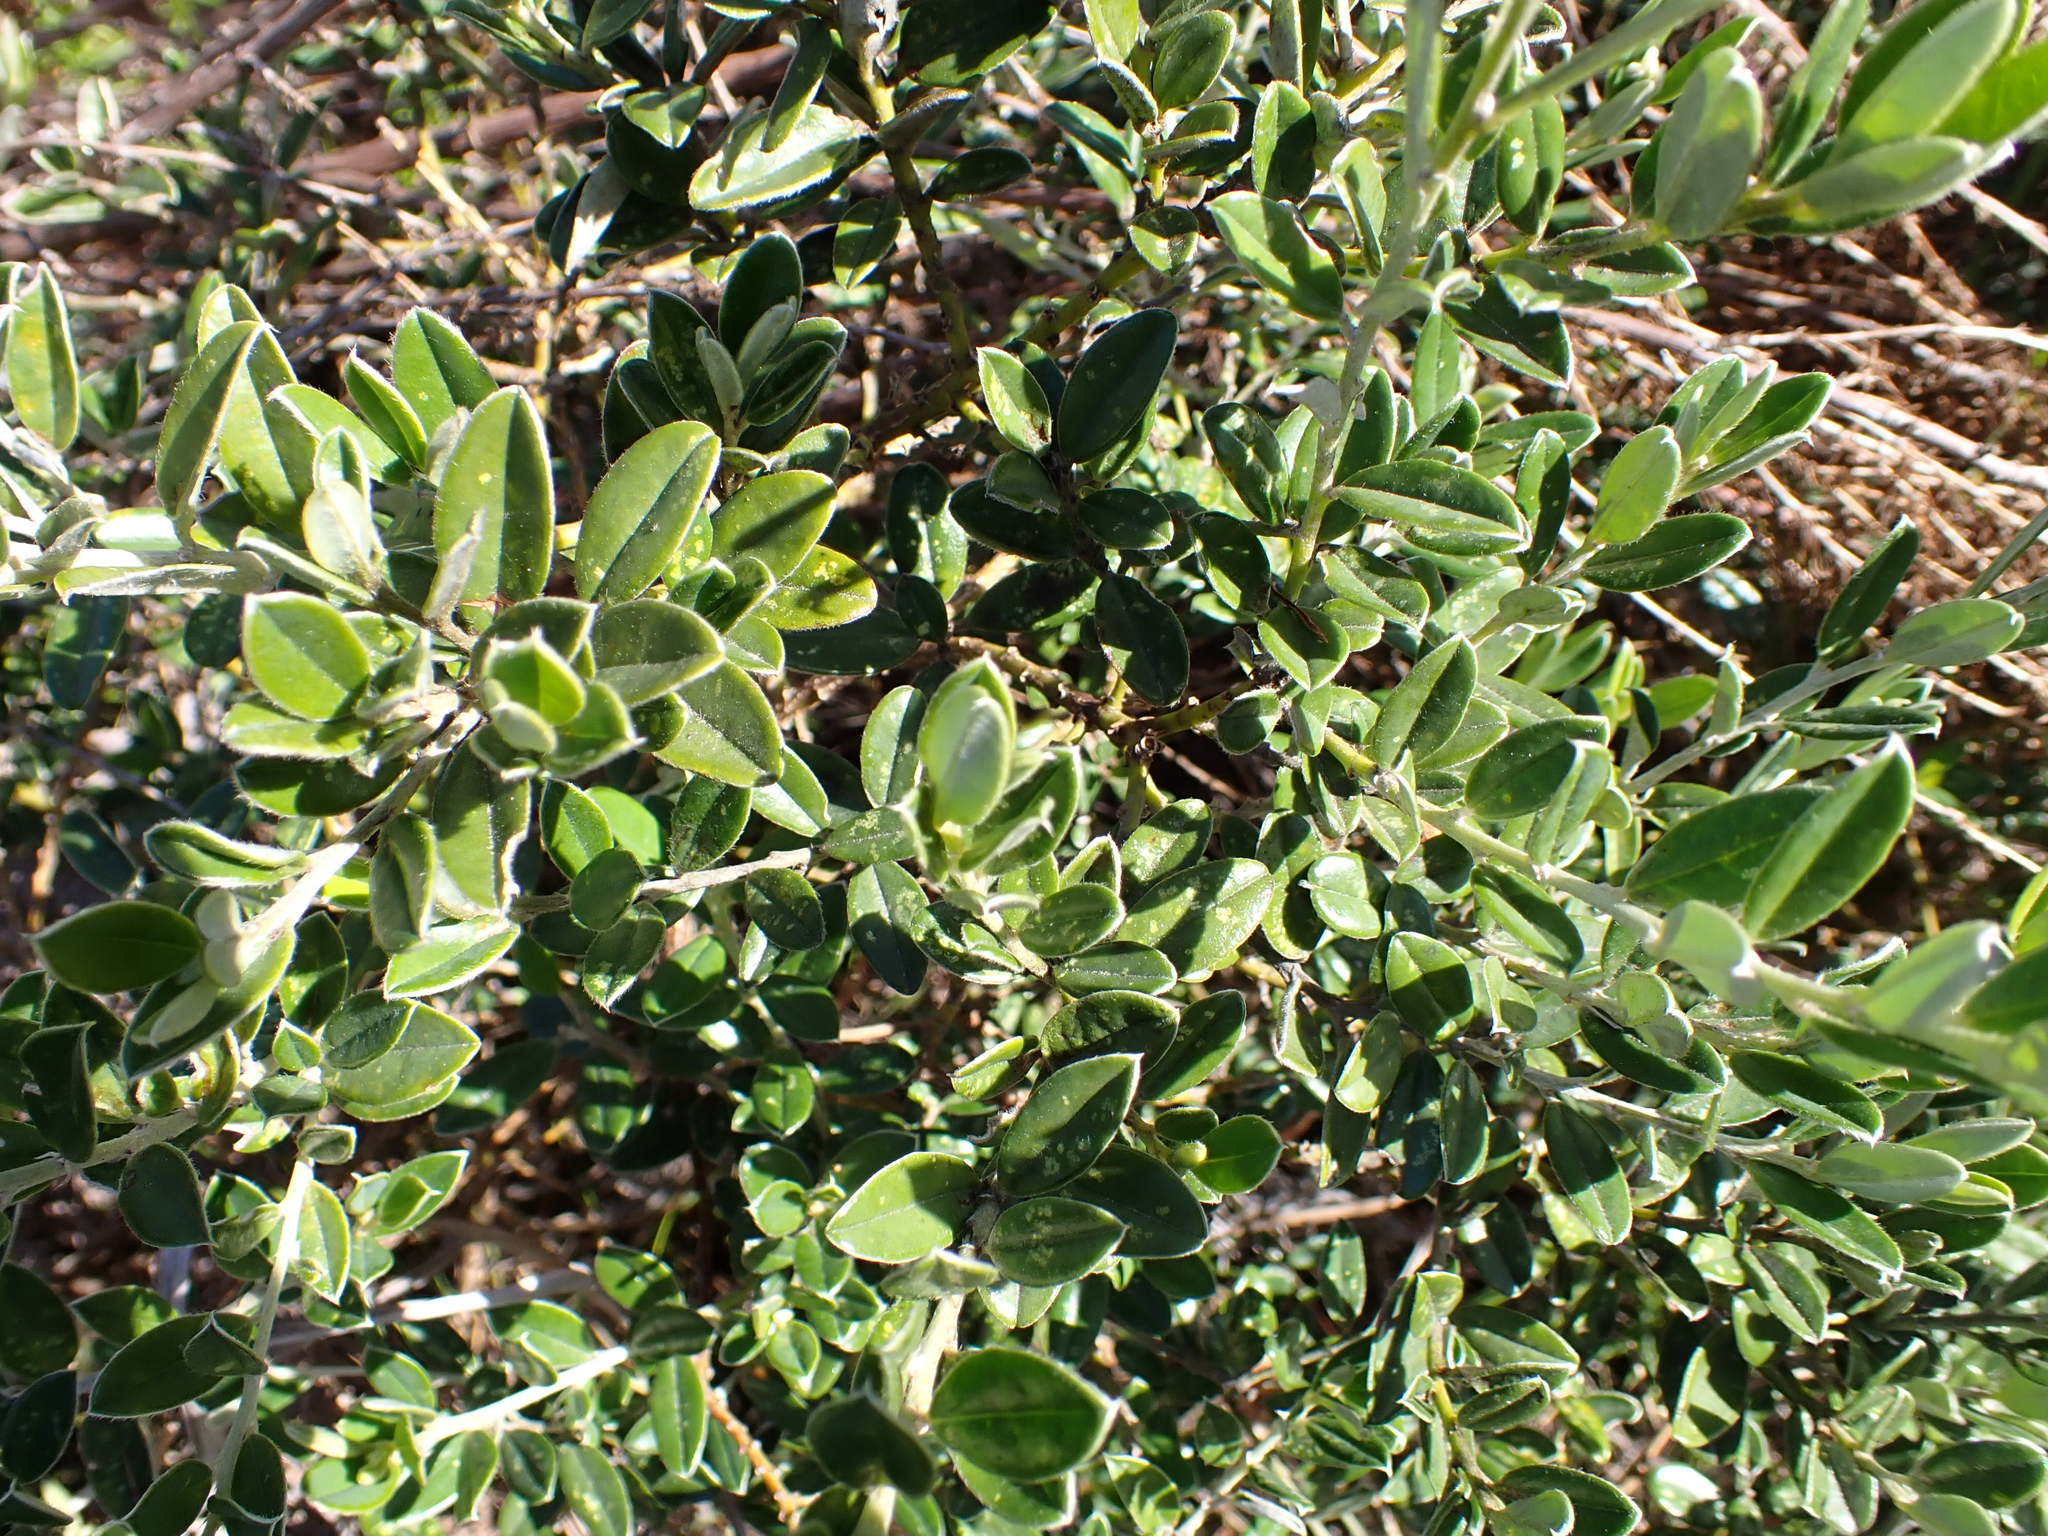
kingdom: Plantae
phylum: Tracheophyta
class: Magnoliopsida
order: Fabales
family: Fabaceae
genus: Podalyria
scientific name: Podalyria buxifolia
